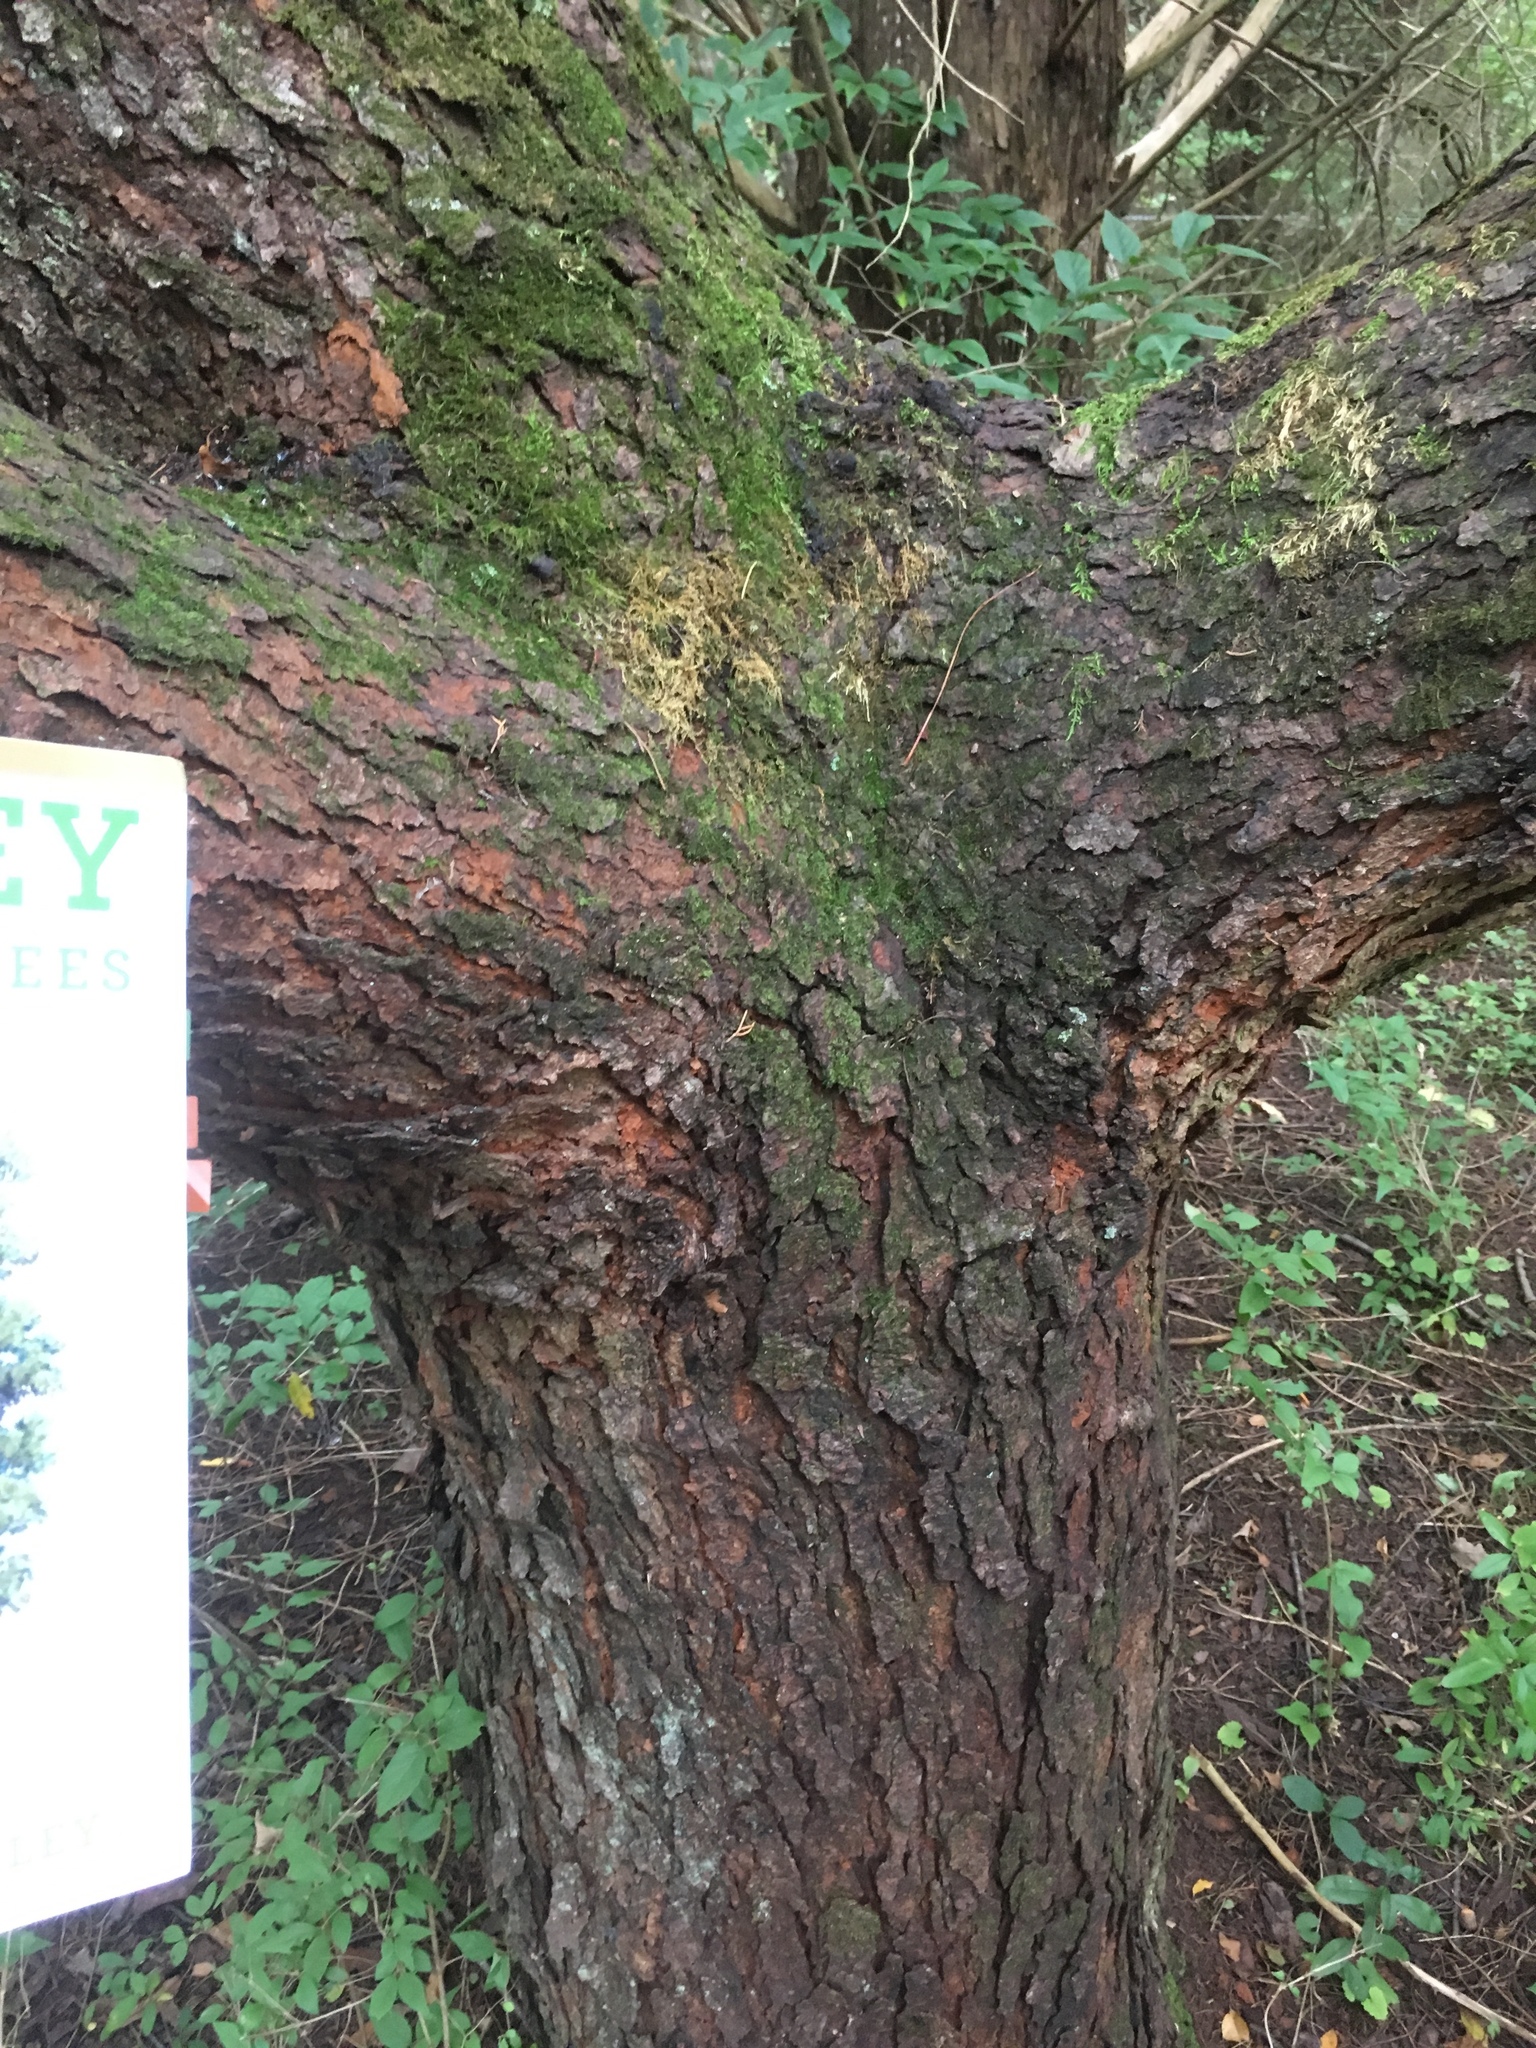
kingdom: Plantae
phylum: Tracheophyta
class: Magnoliopsida
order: Rosales
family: Rosaceae
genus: Prunus
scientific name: Prunus serotina
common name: Black cherry
